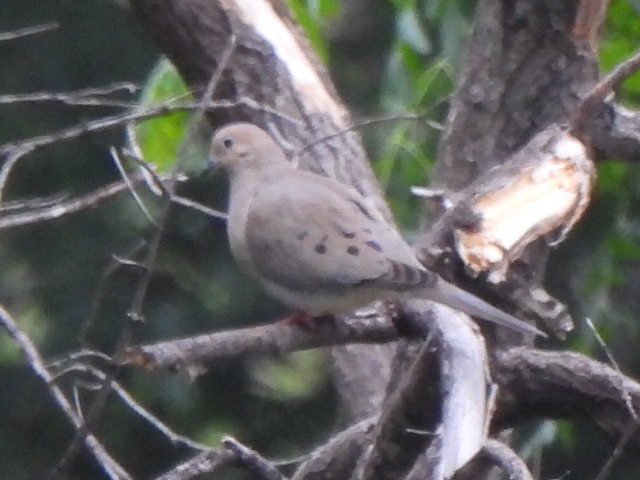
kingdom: Animalia
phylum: Chordata
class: Aves
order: Columbiformes
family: Columbidae
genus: Zenaida
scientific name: Zenaida macroura
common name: Mourning dove
